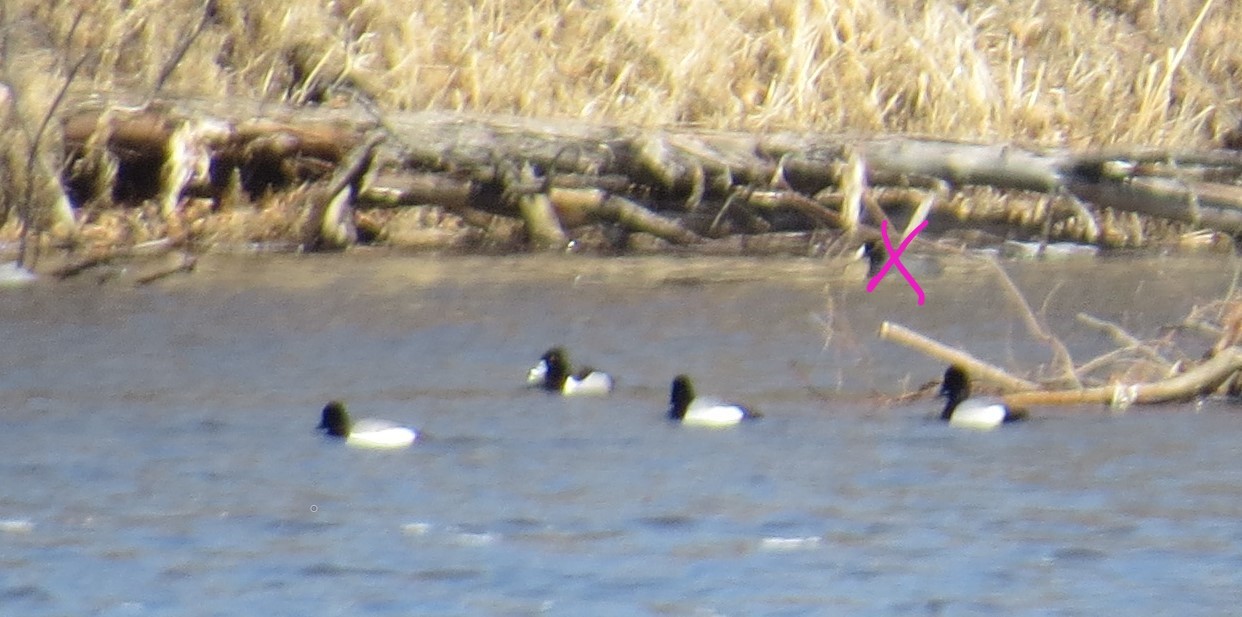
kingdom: Animalia
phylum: Chordata
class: Aves
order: Anseriformes
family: Anatidae
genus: Aythya
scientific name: Aythya collaris
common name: Ring-necked duck
